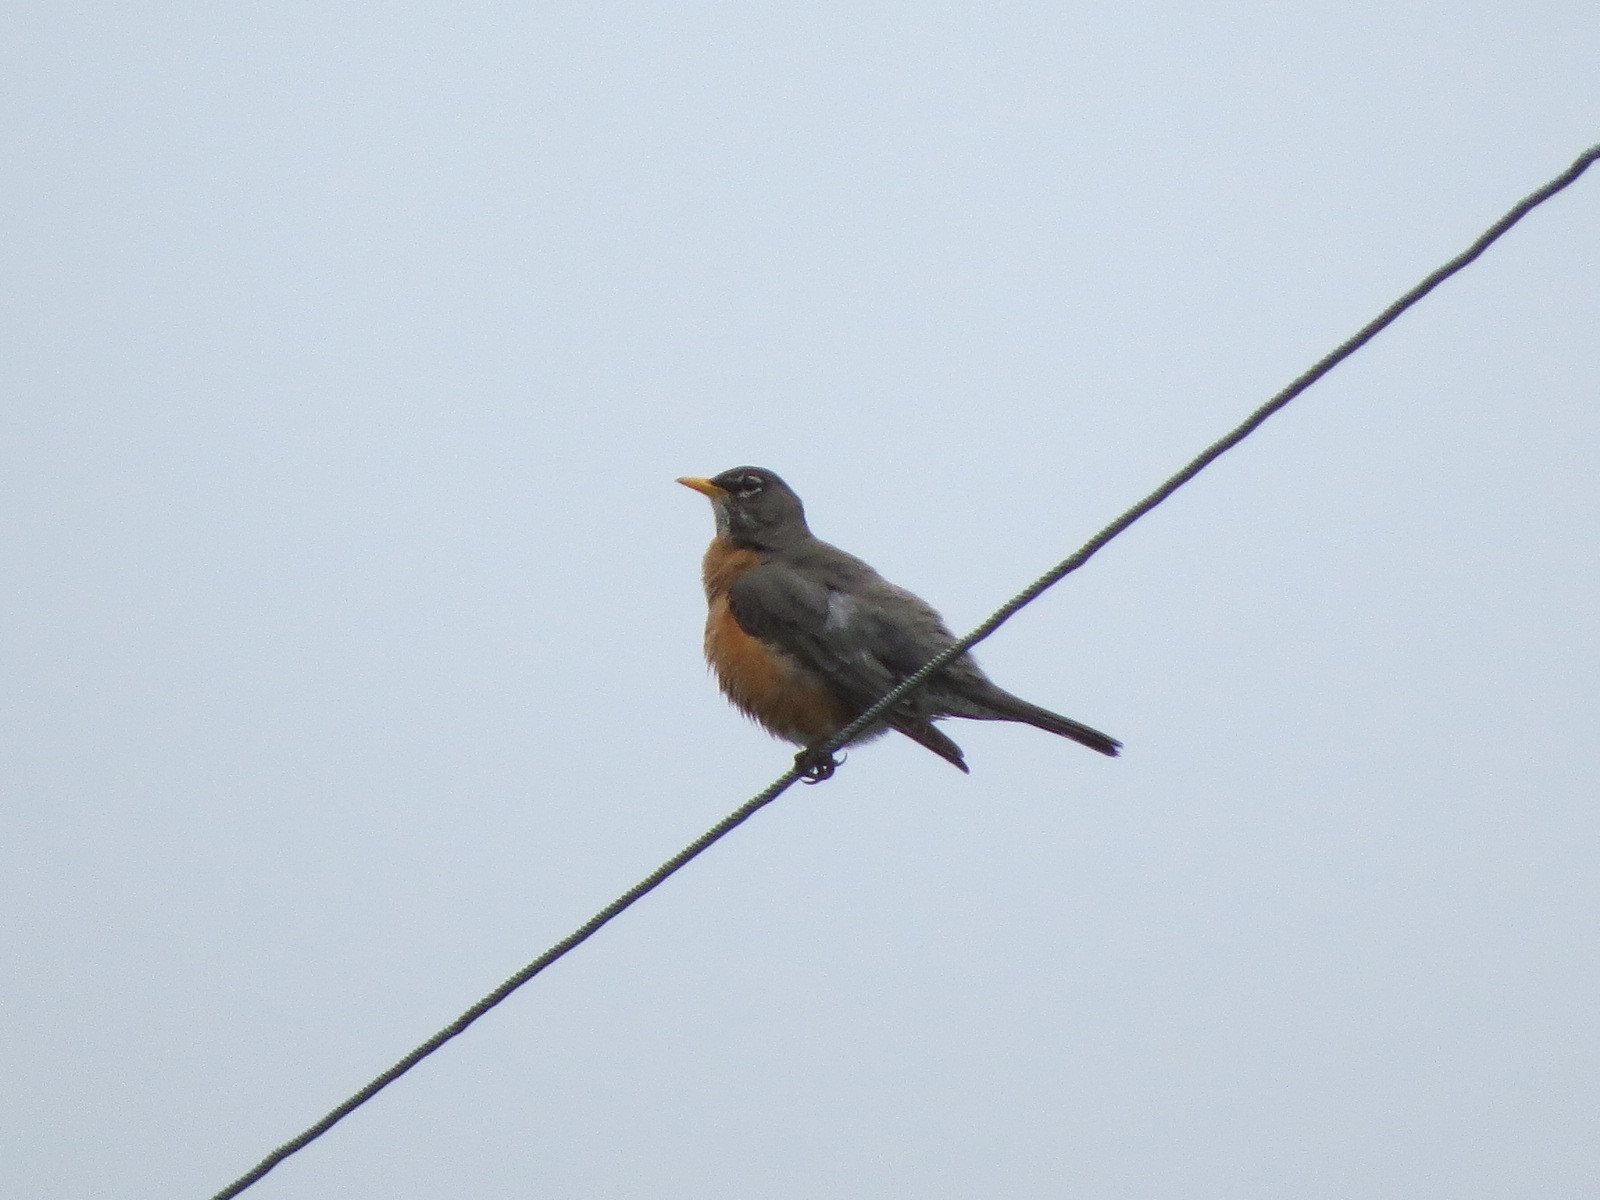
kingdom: Animalia
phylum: Chordata
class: Aves
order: Passeriformes
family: Turdidae
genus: Turdus
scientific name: Turdus migratorius
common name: American robin
